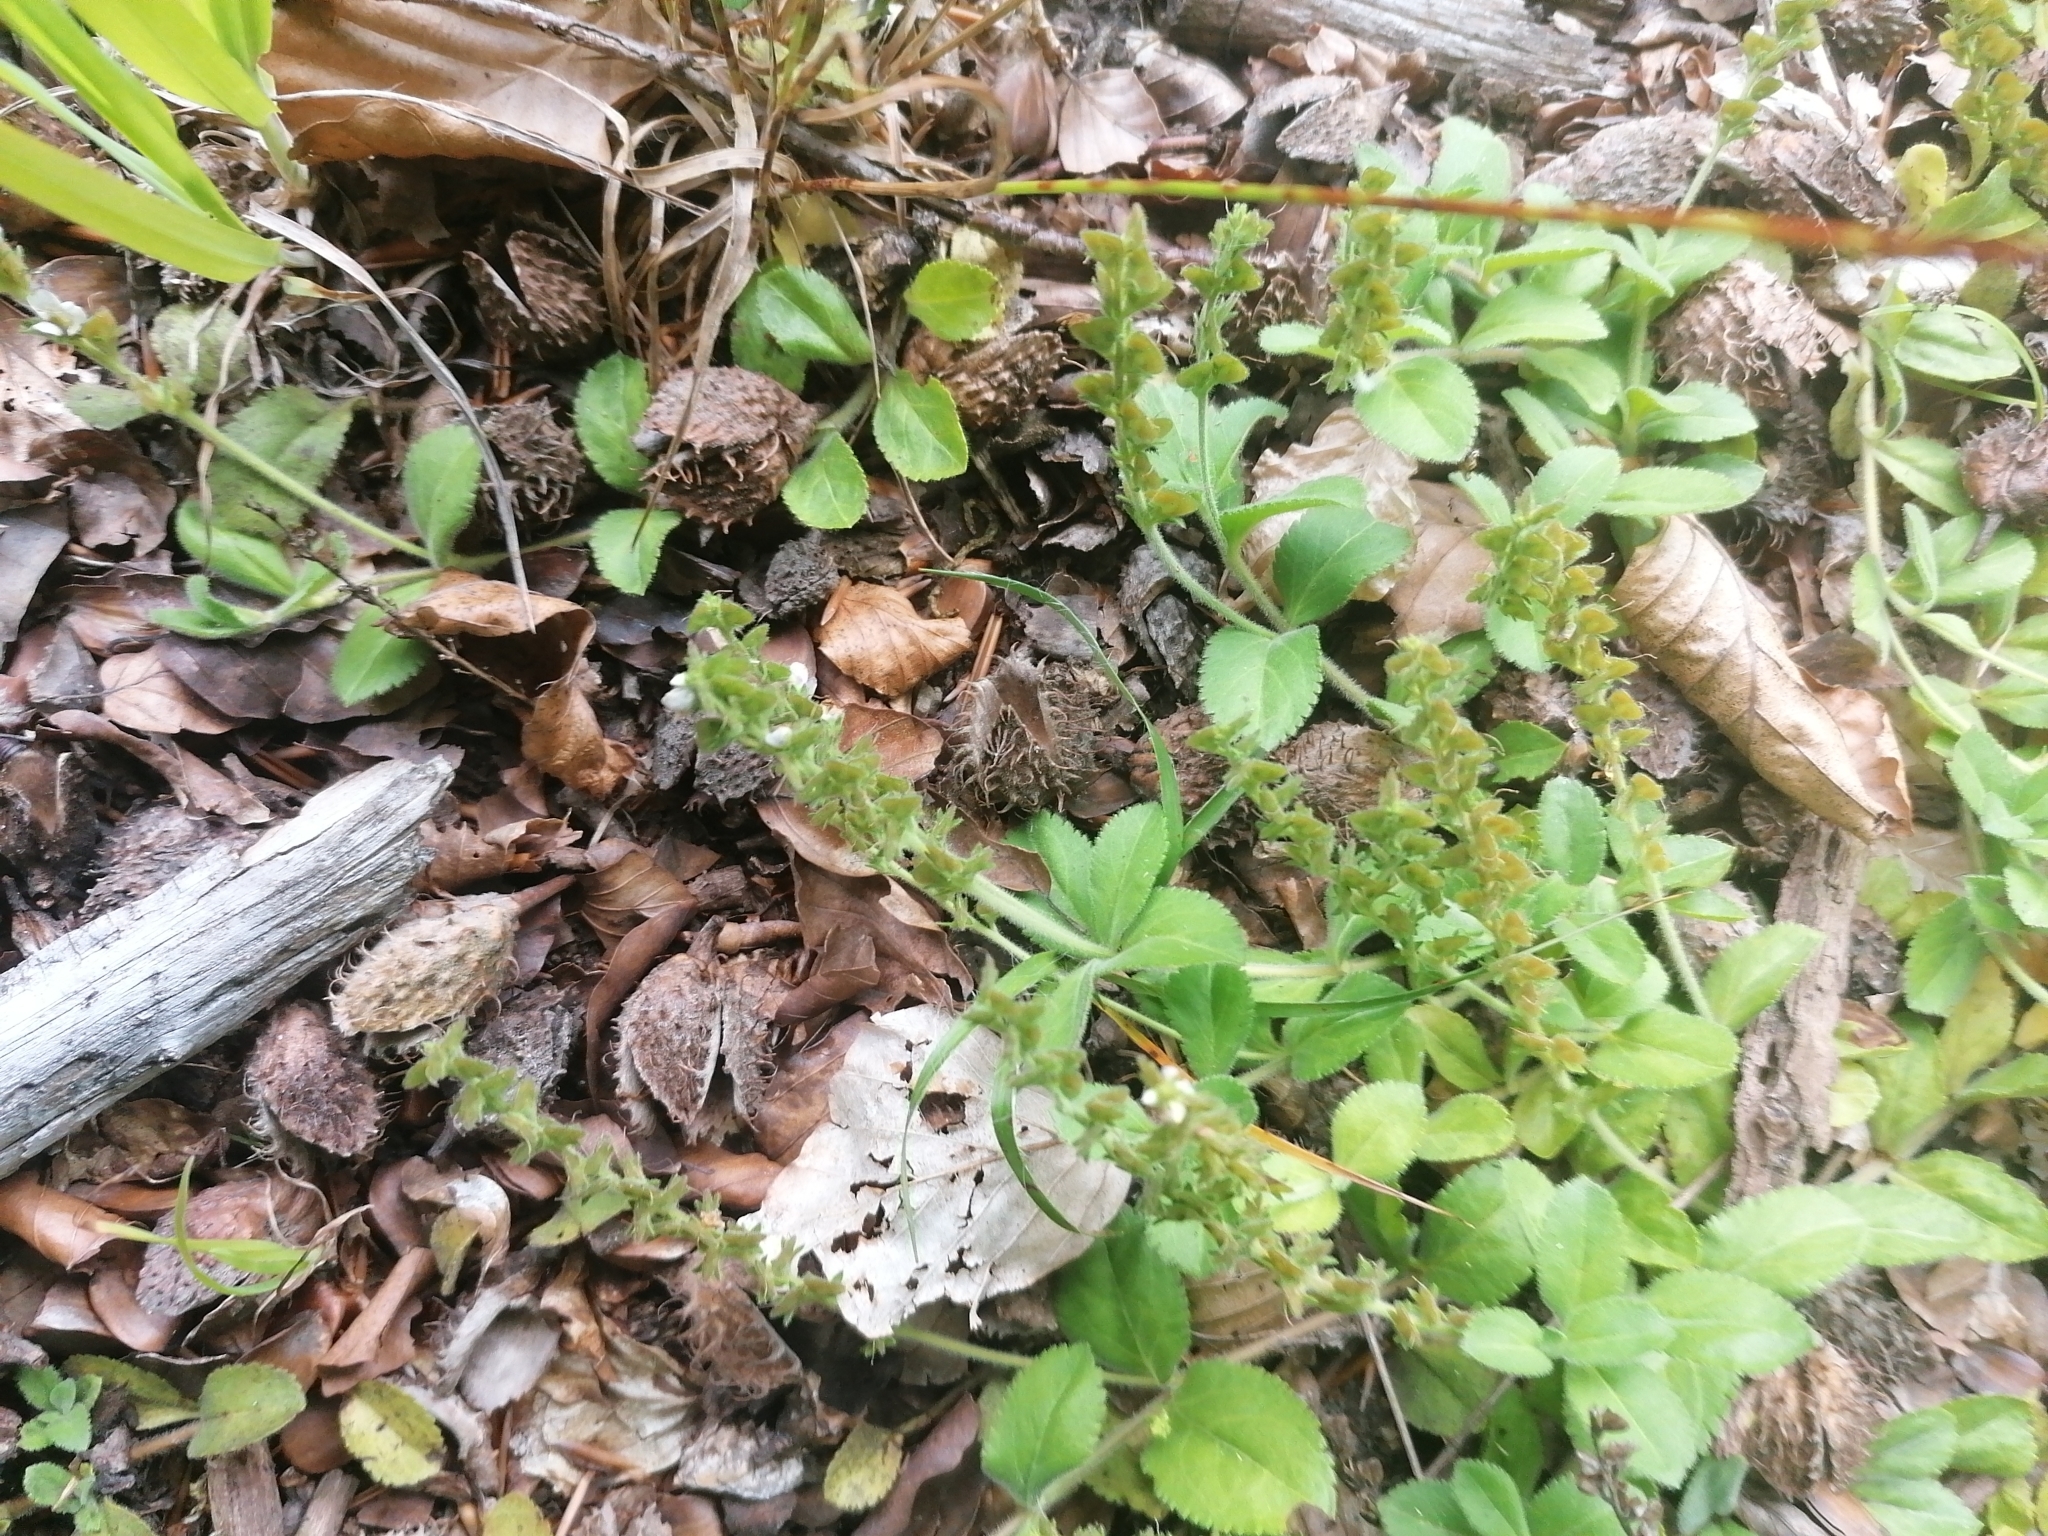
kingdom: Plantae
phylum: Tracheophyta
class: Magnoliopsida
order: Lamiales
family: Plantaginaceae
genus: Veronica
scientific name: Veronica officinalis
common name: Common speedwell
